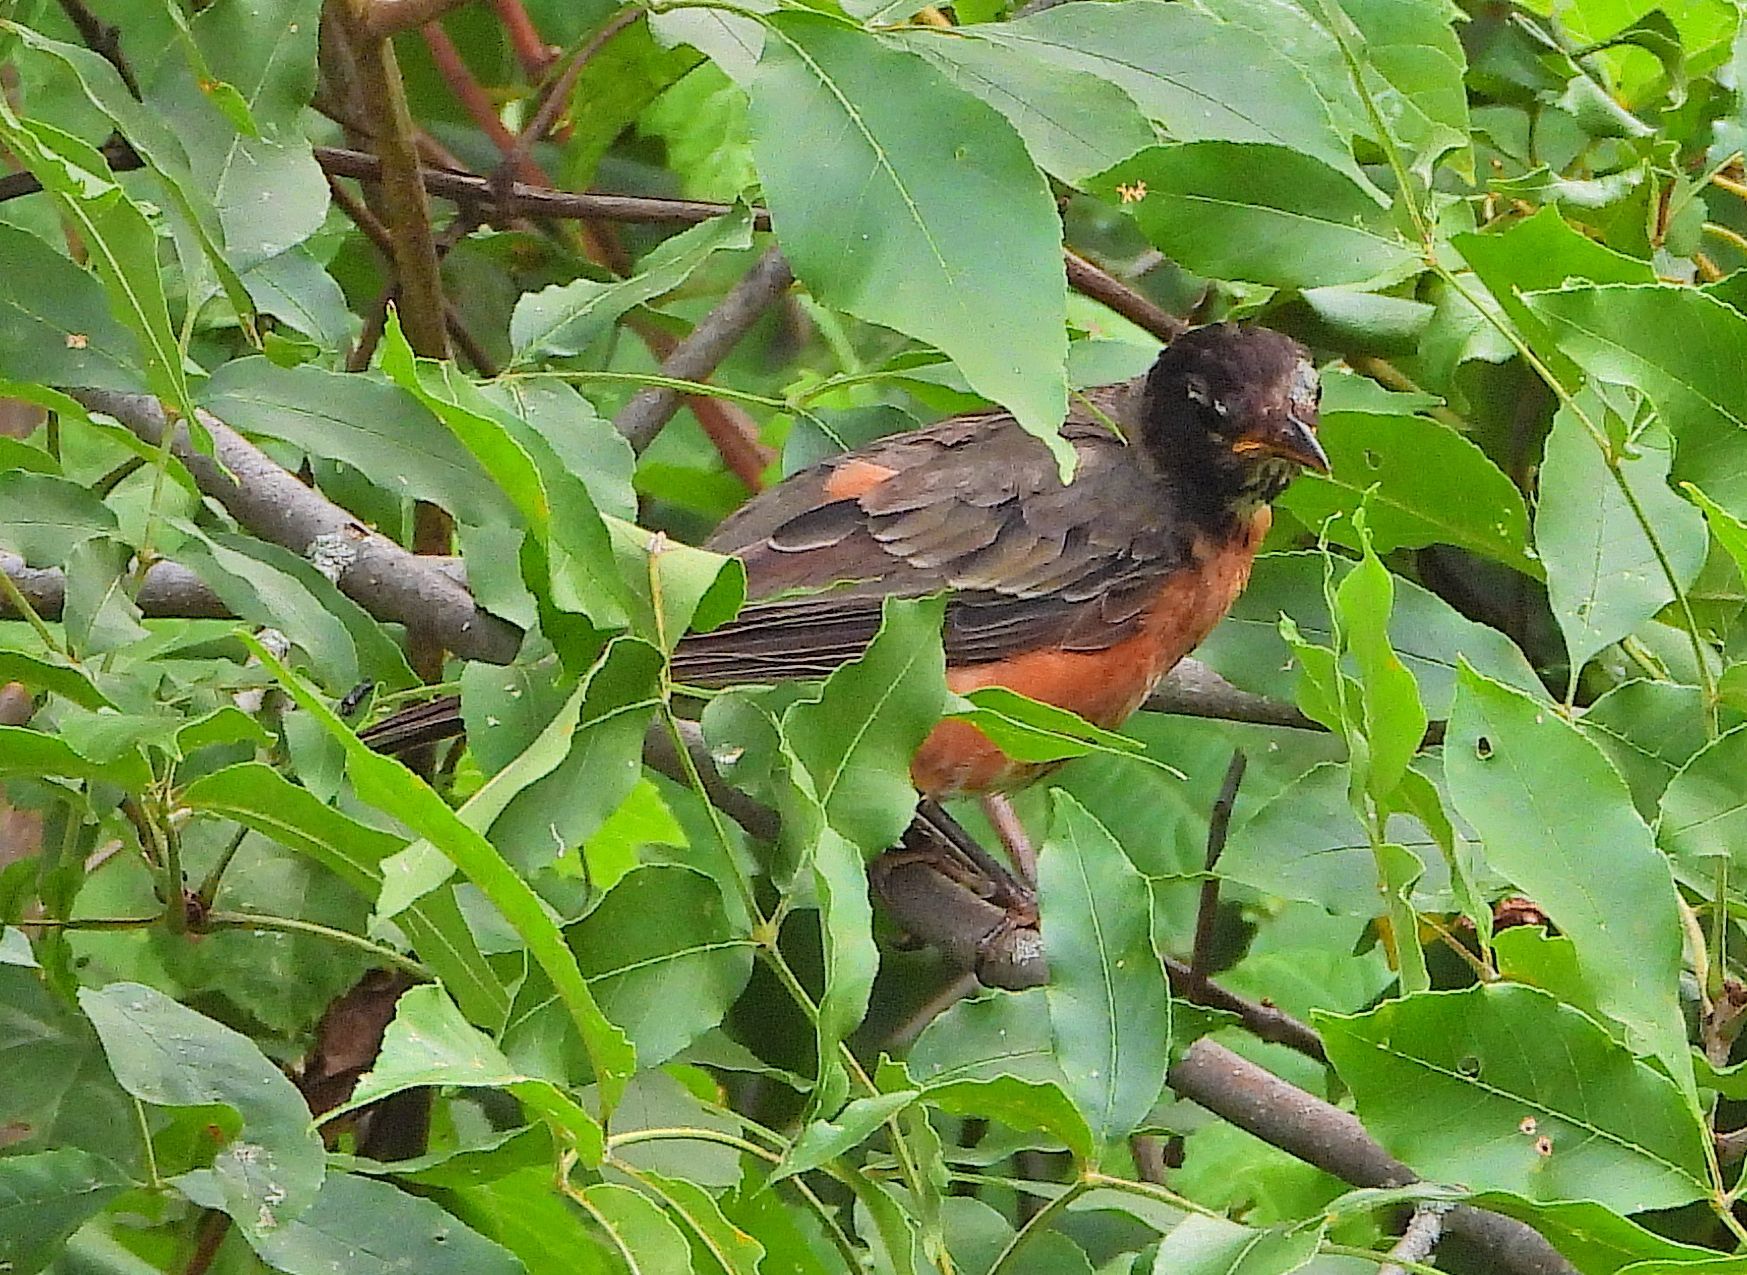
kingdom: Animalia
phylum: Chordata
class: Aves
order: Passeriformes
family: Turdidae
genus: Turdus
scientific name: Turdus migratorius
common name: American robin
